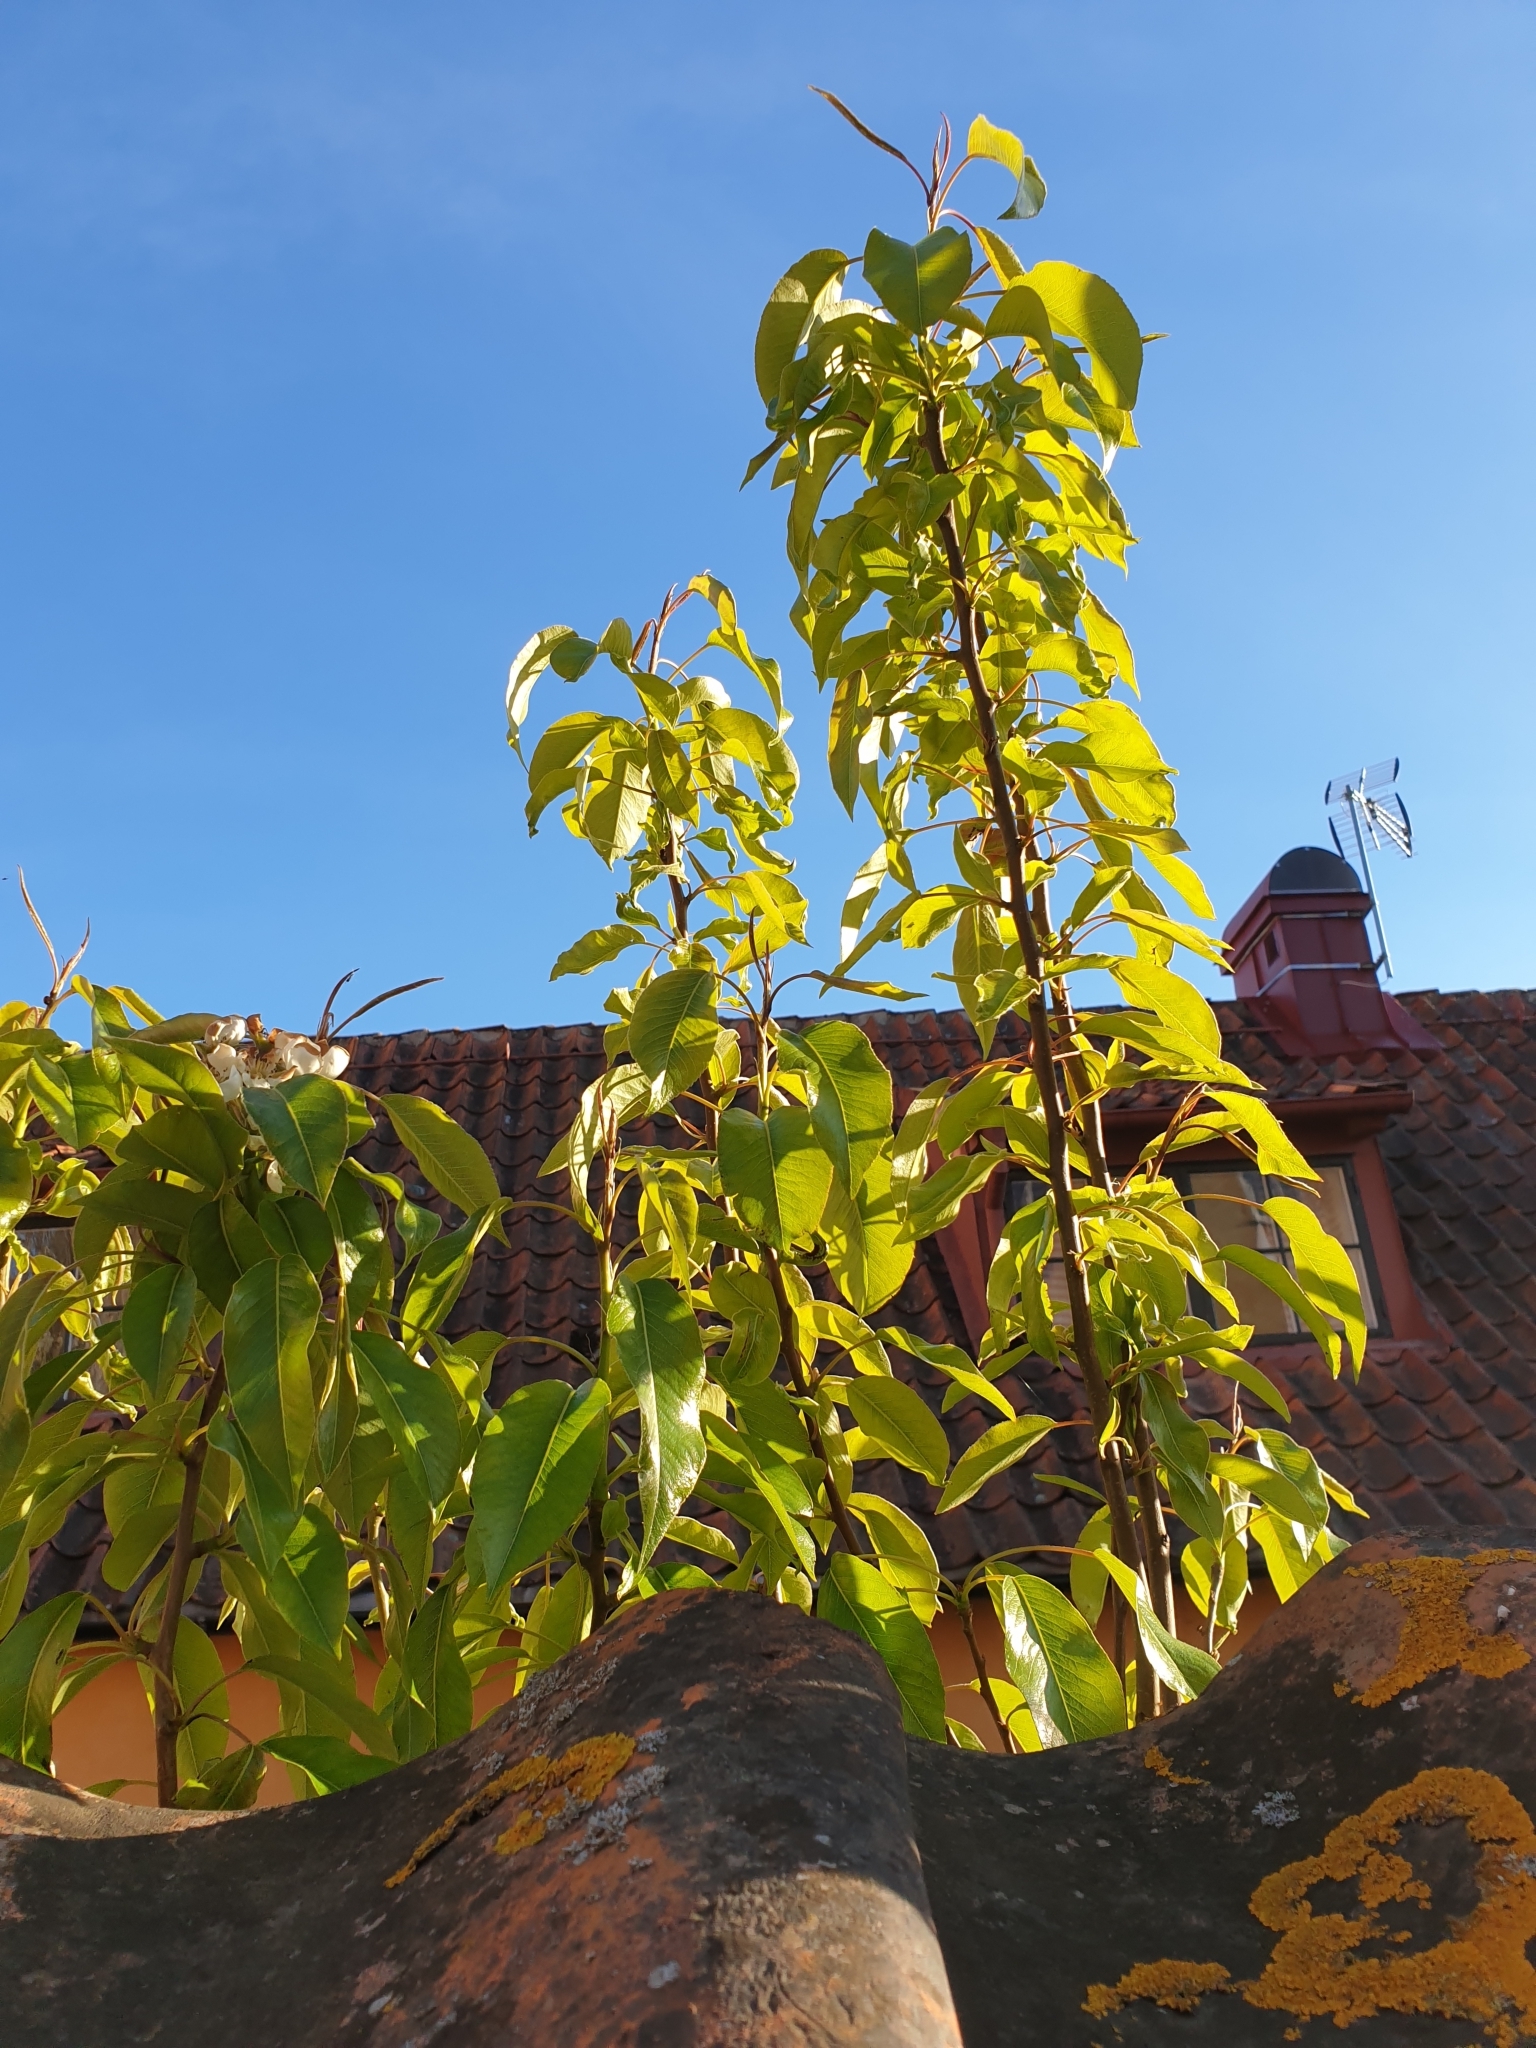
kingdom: Plantae
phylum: Tracheophyta
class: Magnoliopsida
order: Rosales
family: Rosaceae
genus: Pyrus
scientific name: Pyrus communis
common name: Pear
